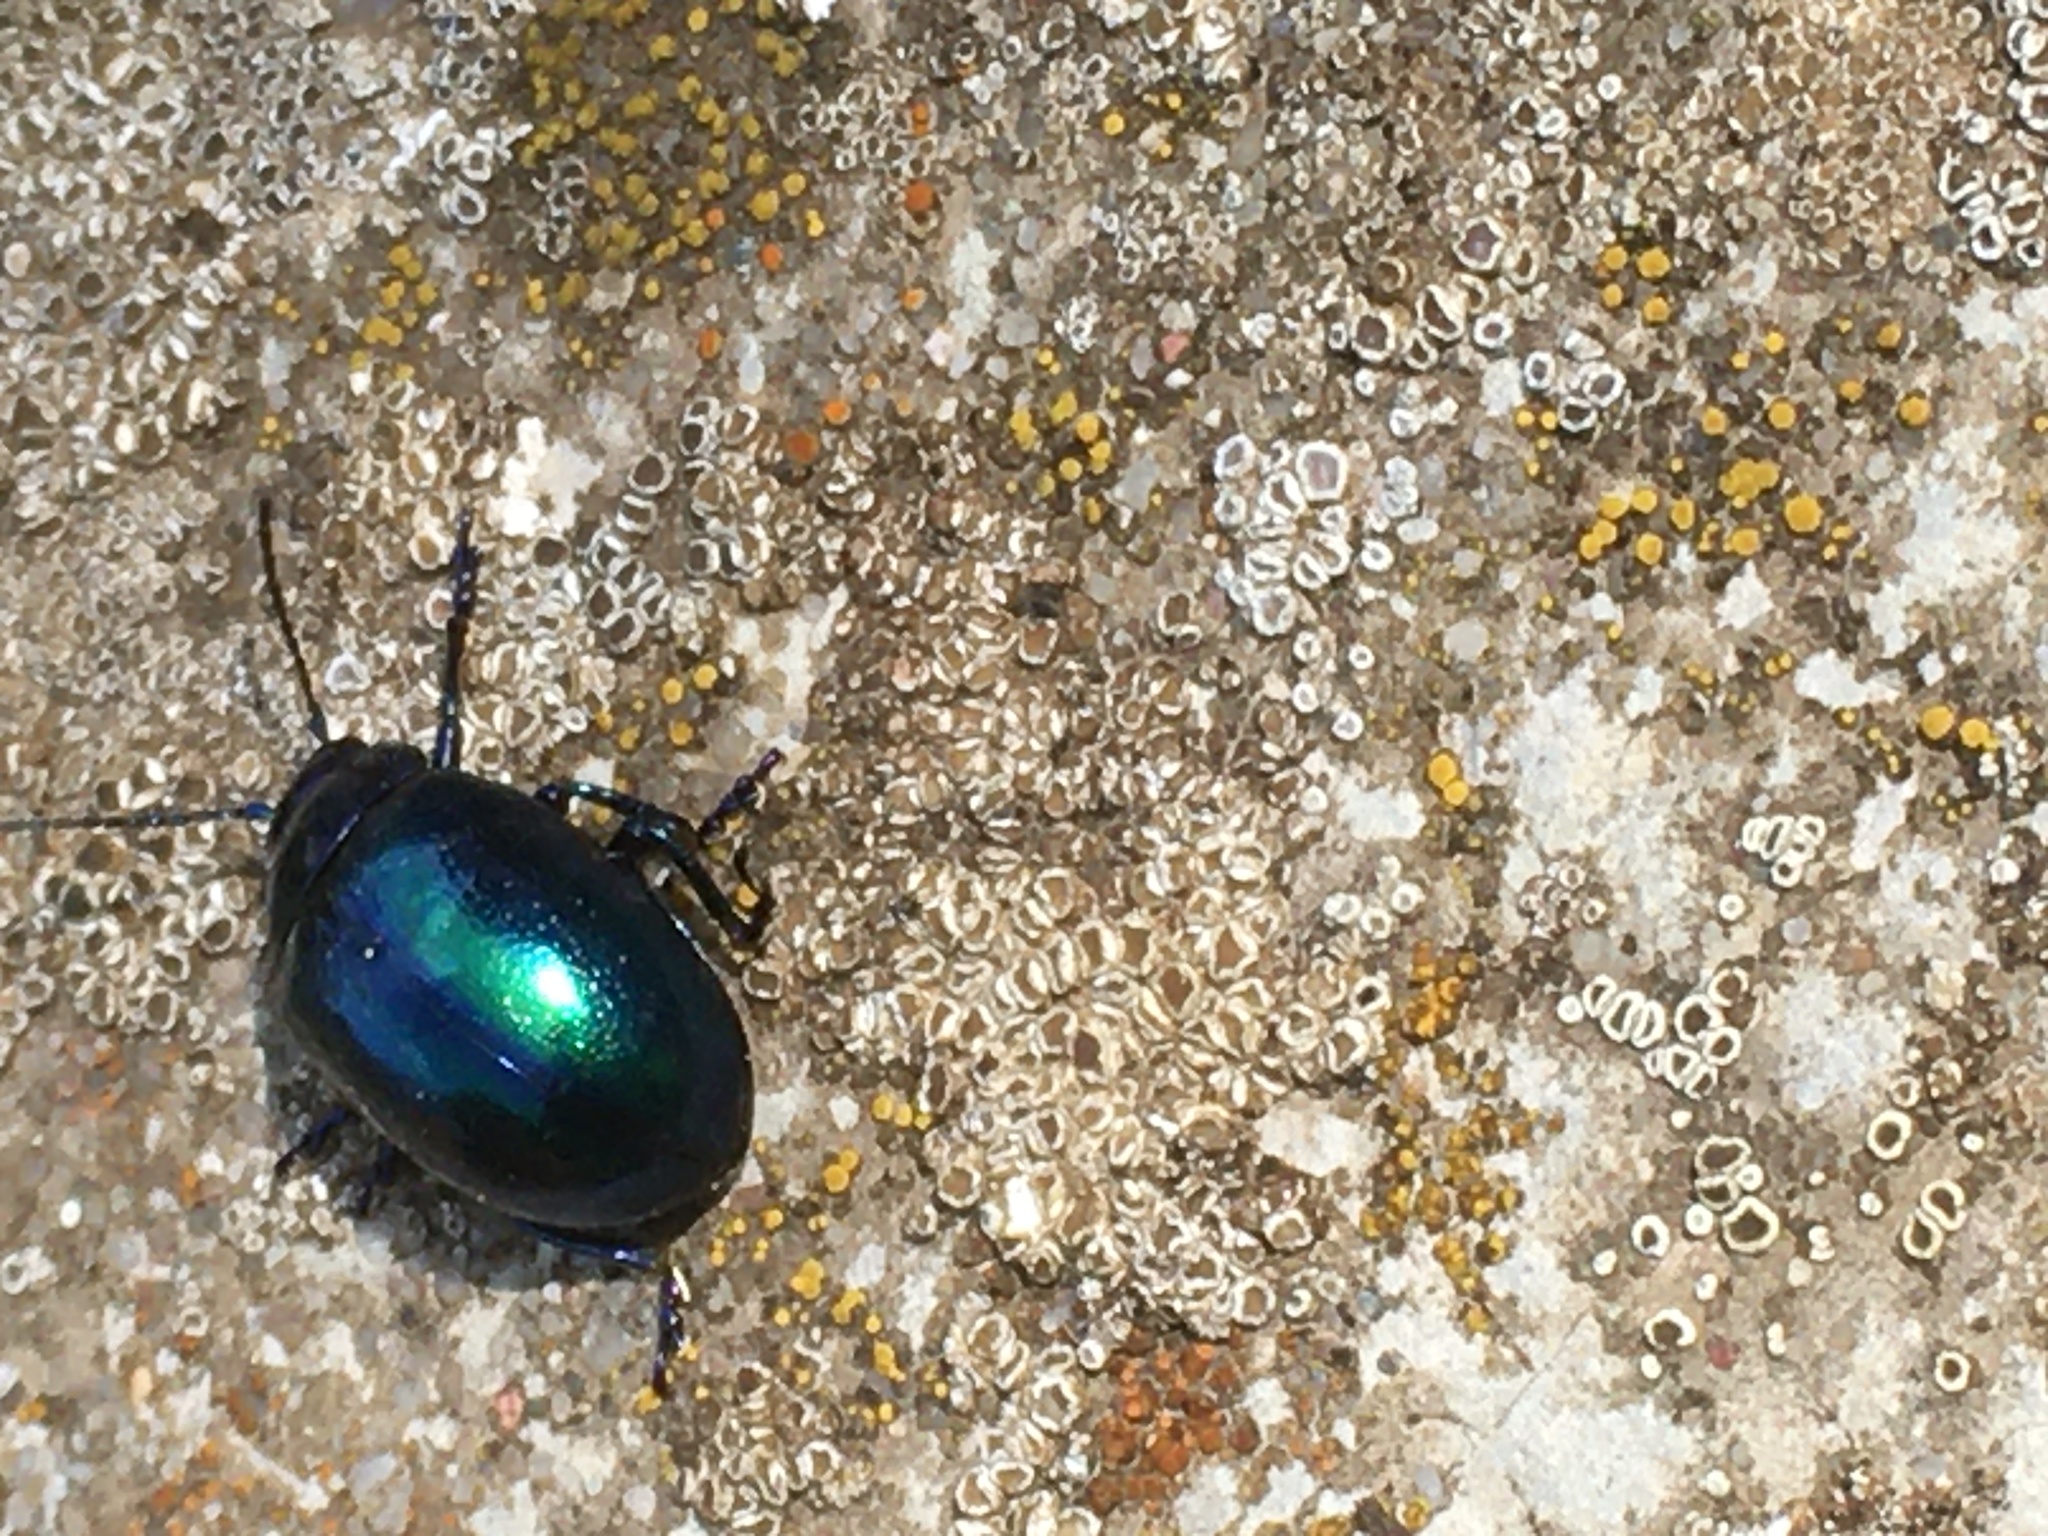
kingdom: Animalia
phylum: Arthropoda
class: Insecta
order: Coleoptera
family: Chrysomelidae
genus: Chrysolina
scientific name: Chrysolina coerulans
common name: Blue mint beetle
